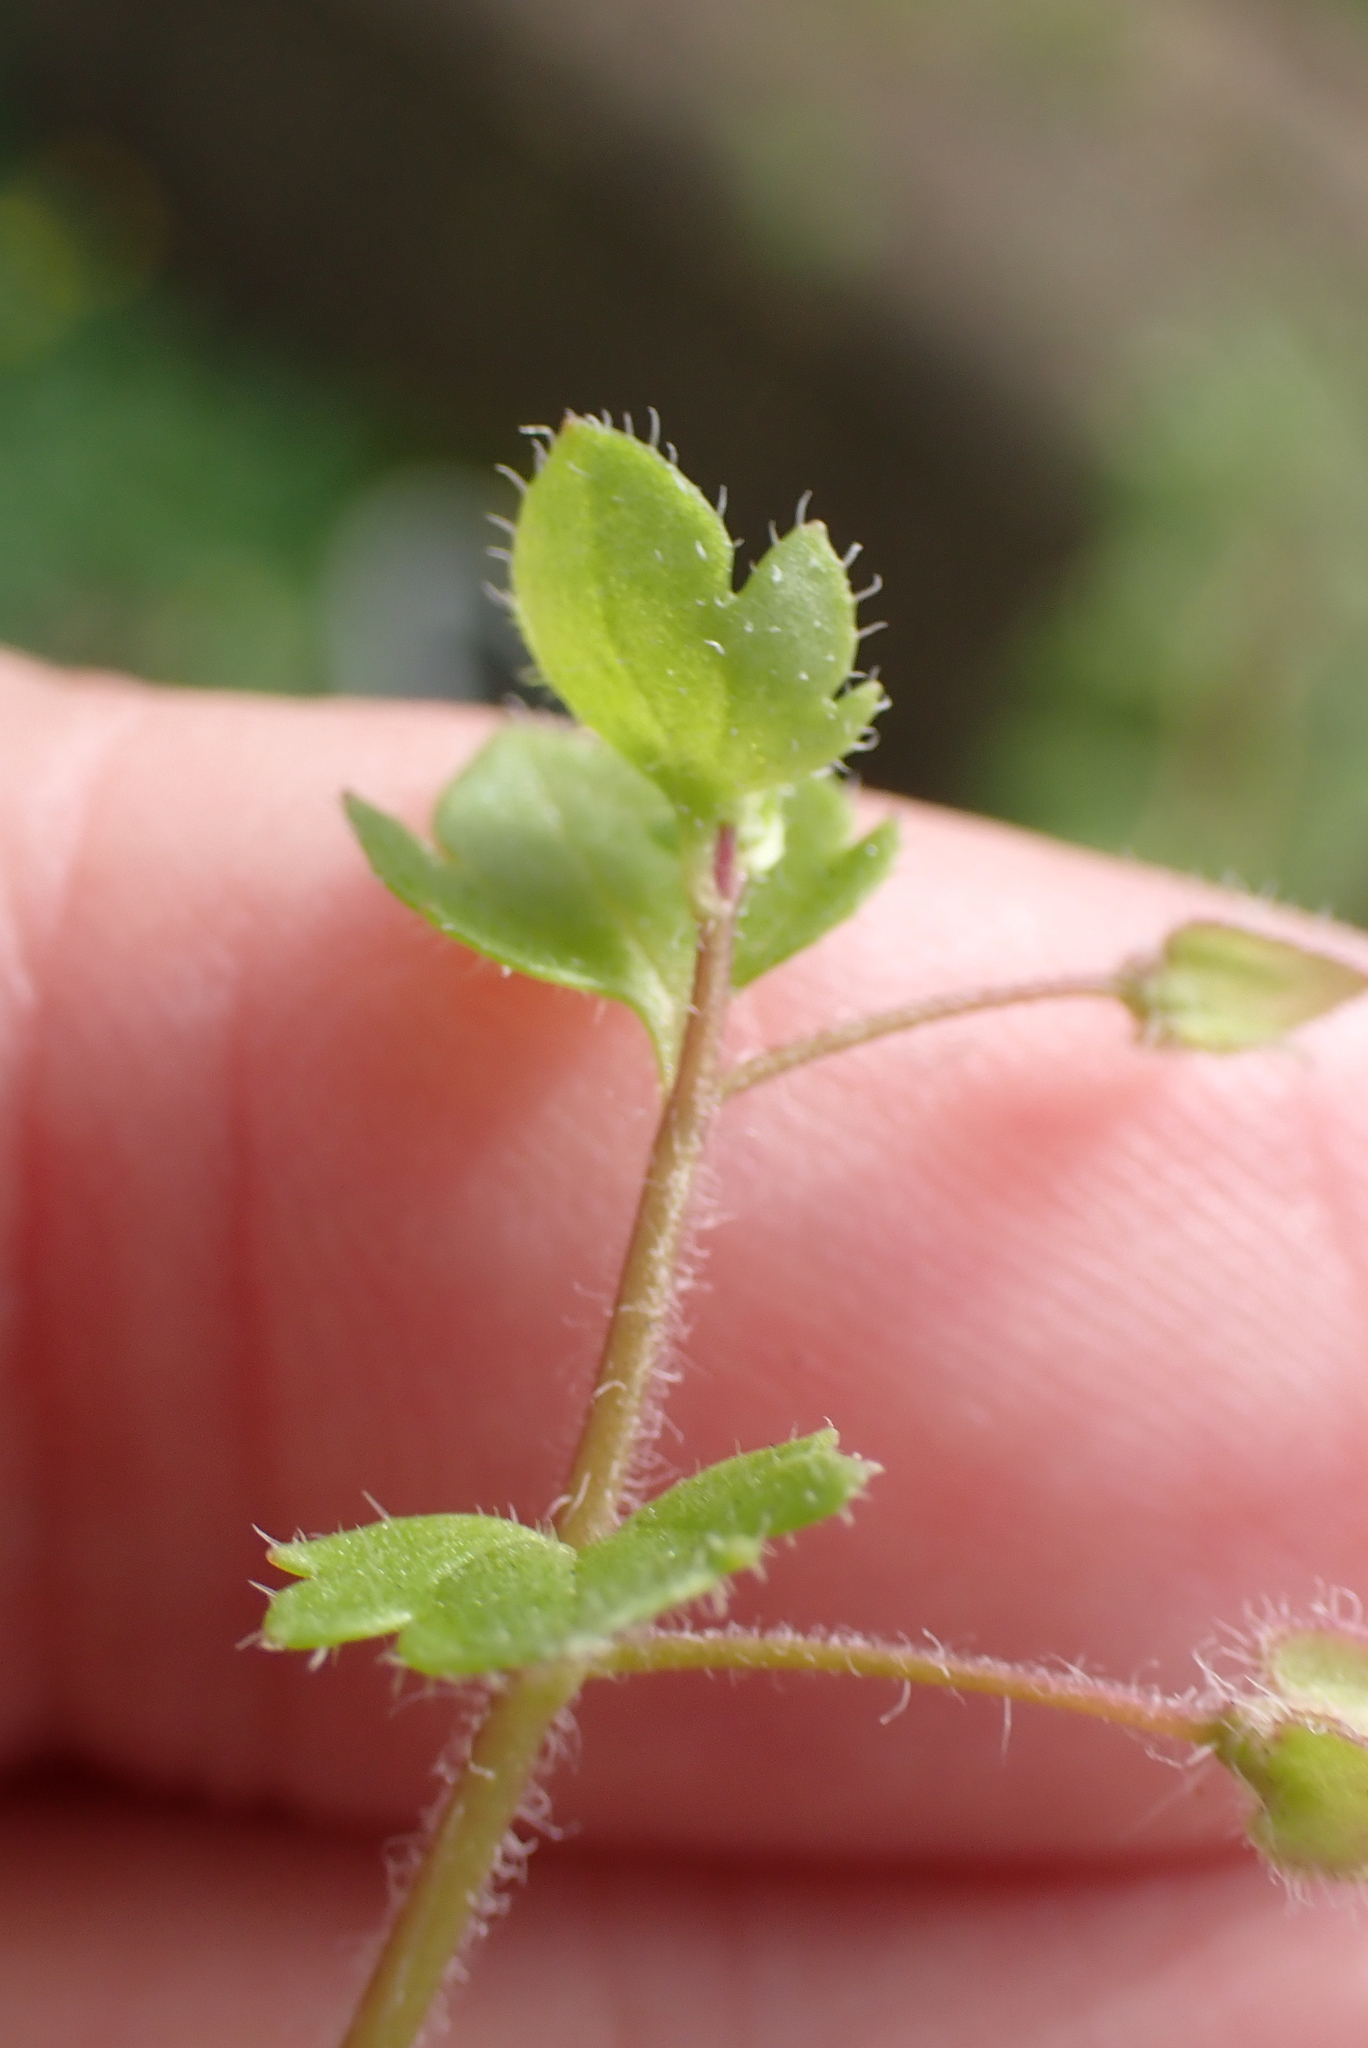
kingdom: Plantae
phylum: Tracheophyta
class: Magnoliopsida
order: Lamiales
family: Plantaginaceae
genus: Veronica
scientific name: Veronica sublobata
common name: False ivy-leaved speedwell
